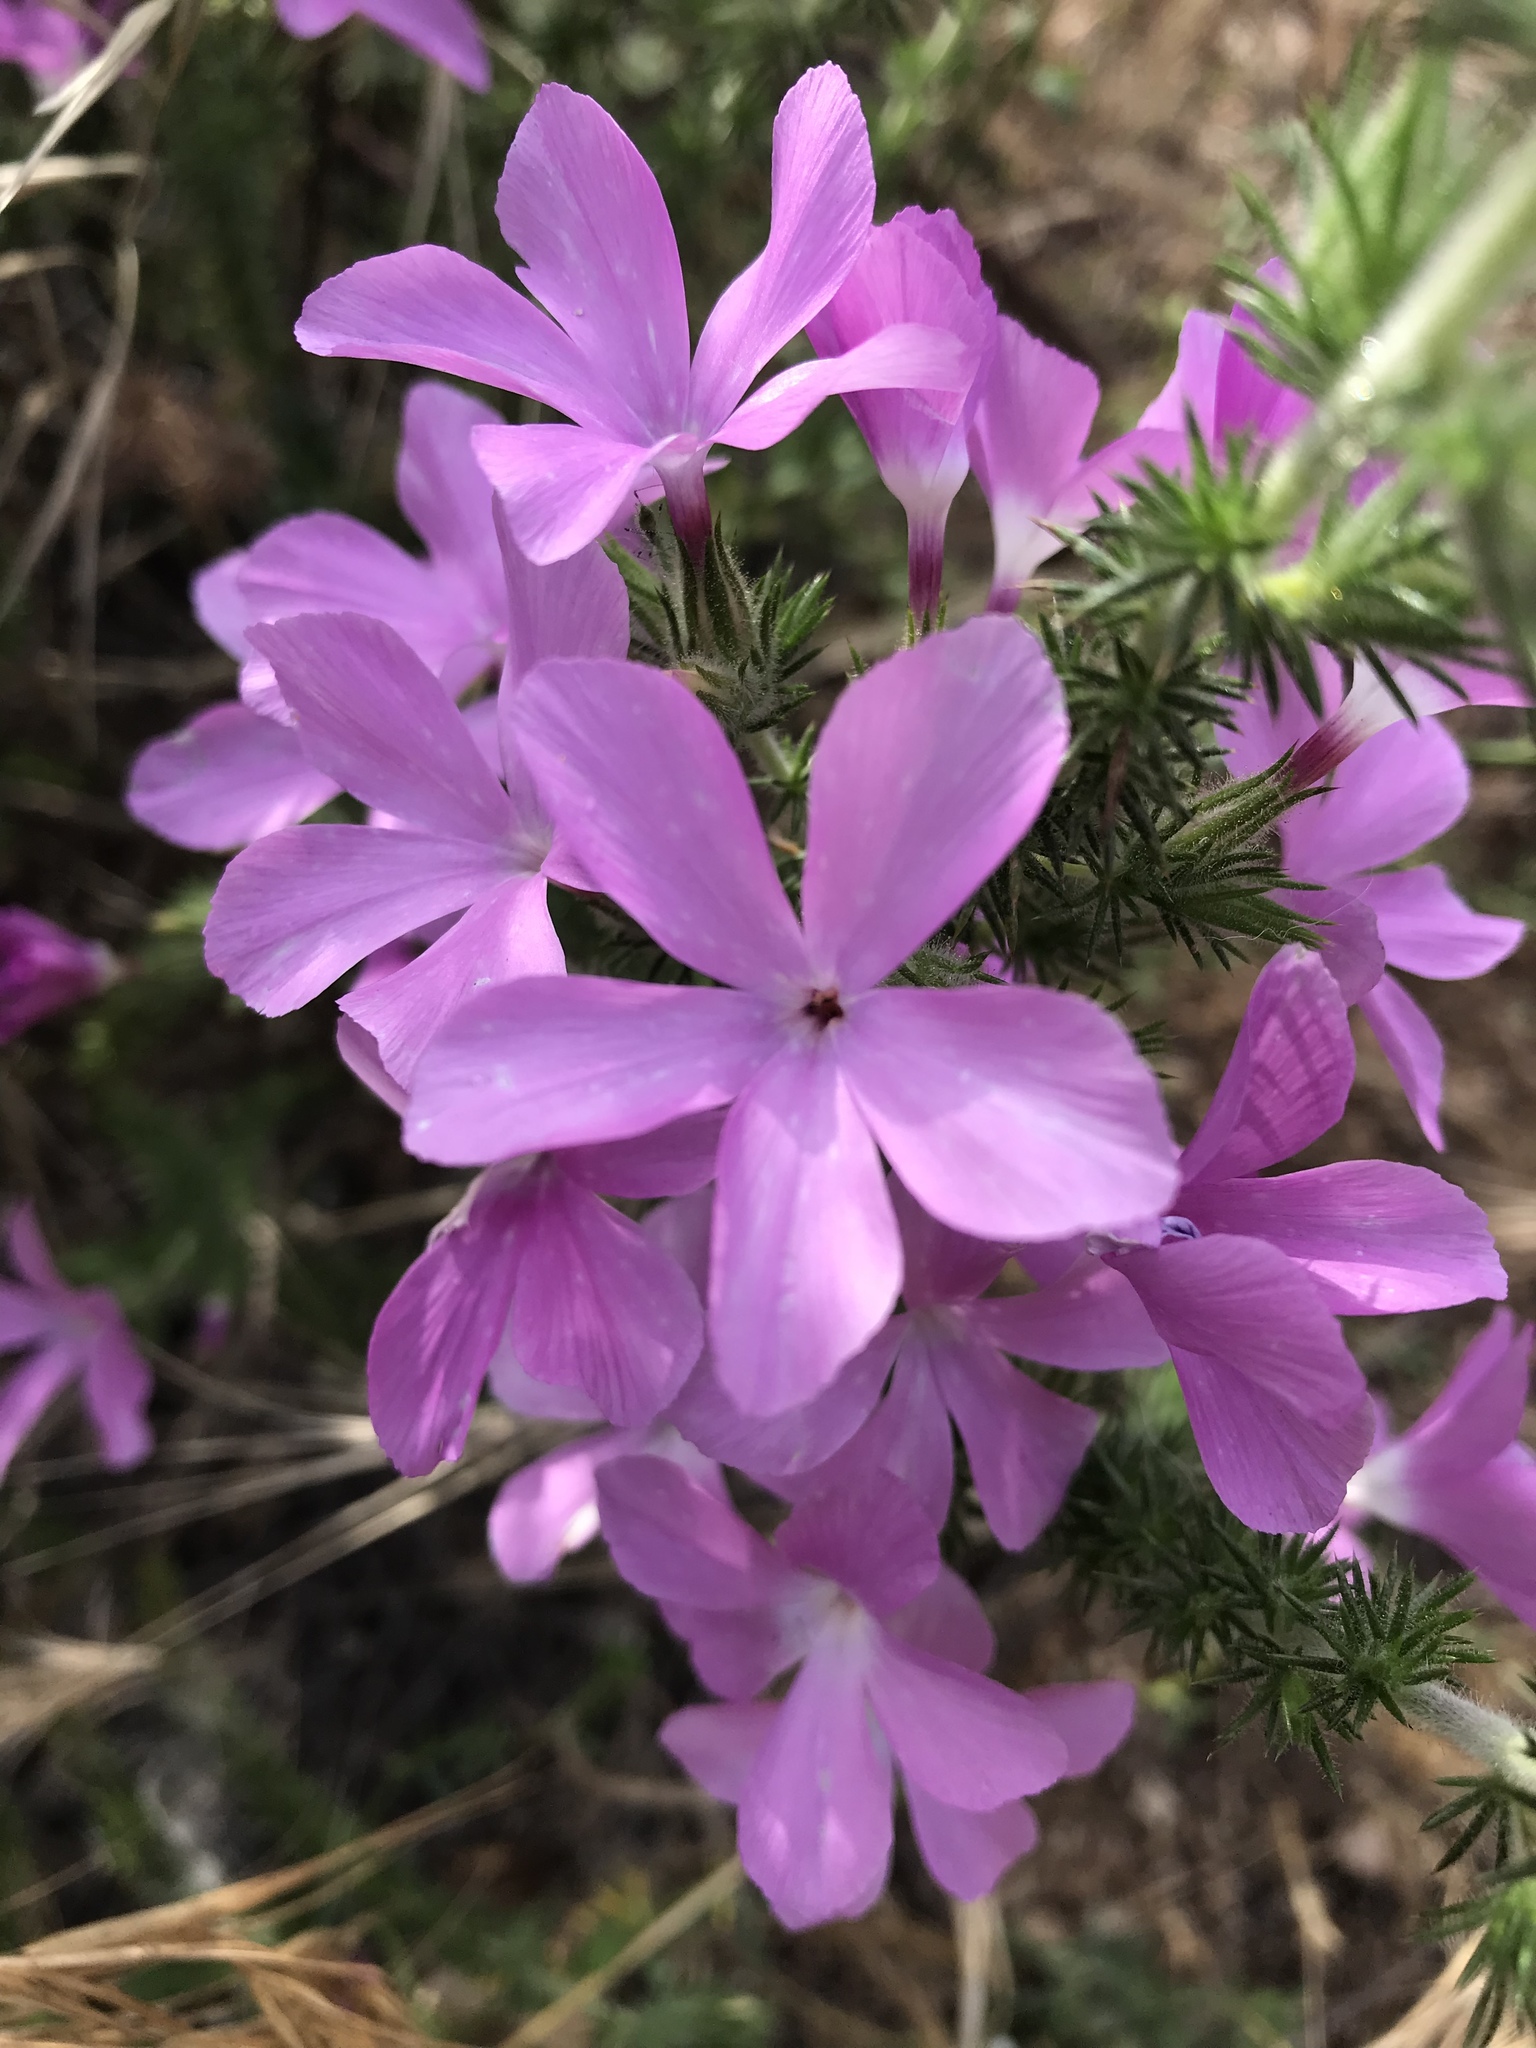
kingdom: Plantae
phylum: Tracheophyta
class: Magnoliopsida
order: Ericales
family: Polemoniaceae
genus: Linanthus
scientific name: Linanthus californicus
